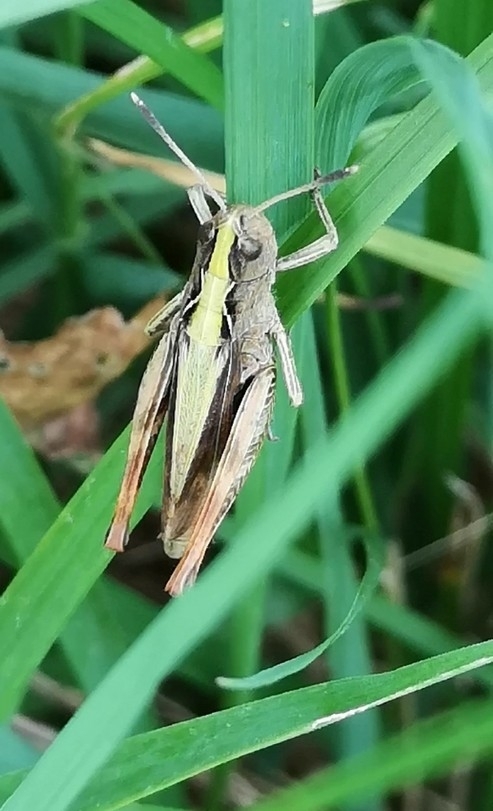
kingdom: Animalia
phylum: Arthropoda
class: Insecta
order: Orthoptera
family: Acrididae
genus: Gomphocerippus
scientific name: Gomphocerippus rufus
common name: Rufous grasshopper
